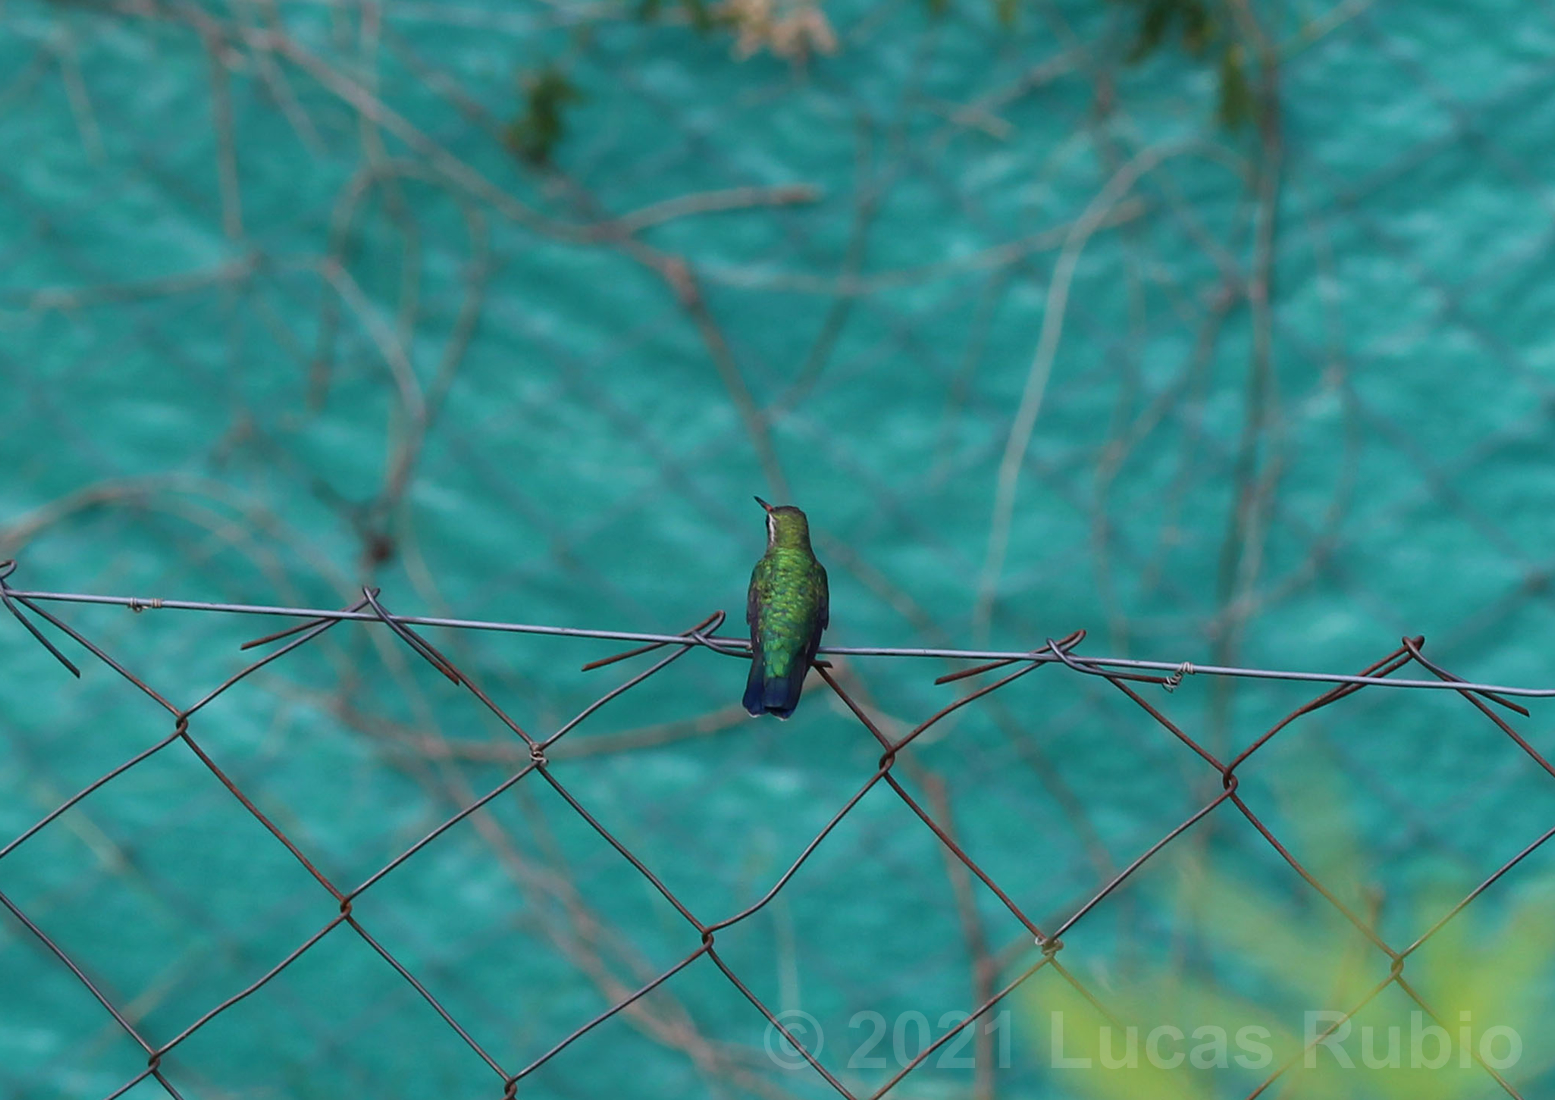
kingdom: Animalia
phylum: Chordata
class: Aves
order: Apodiformes
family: Trochilidae
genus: Chlorostilbon
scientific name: Chlorostilbon lucidus
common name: Glittering-bellied emerald
